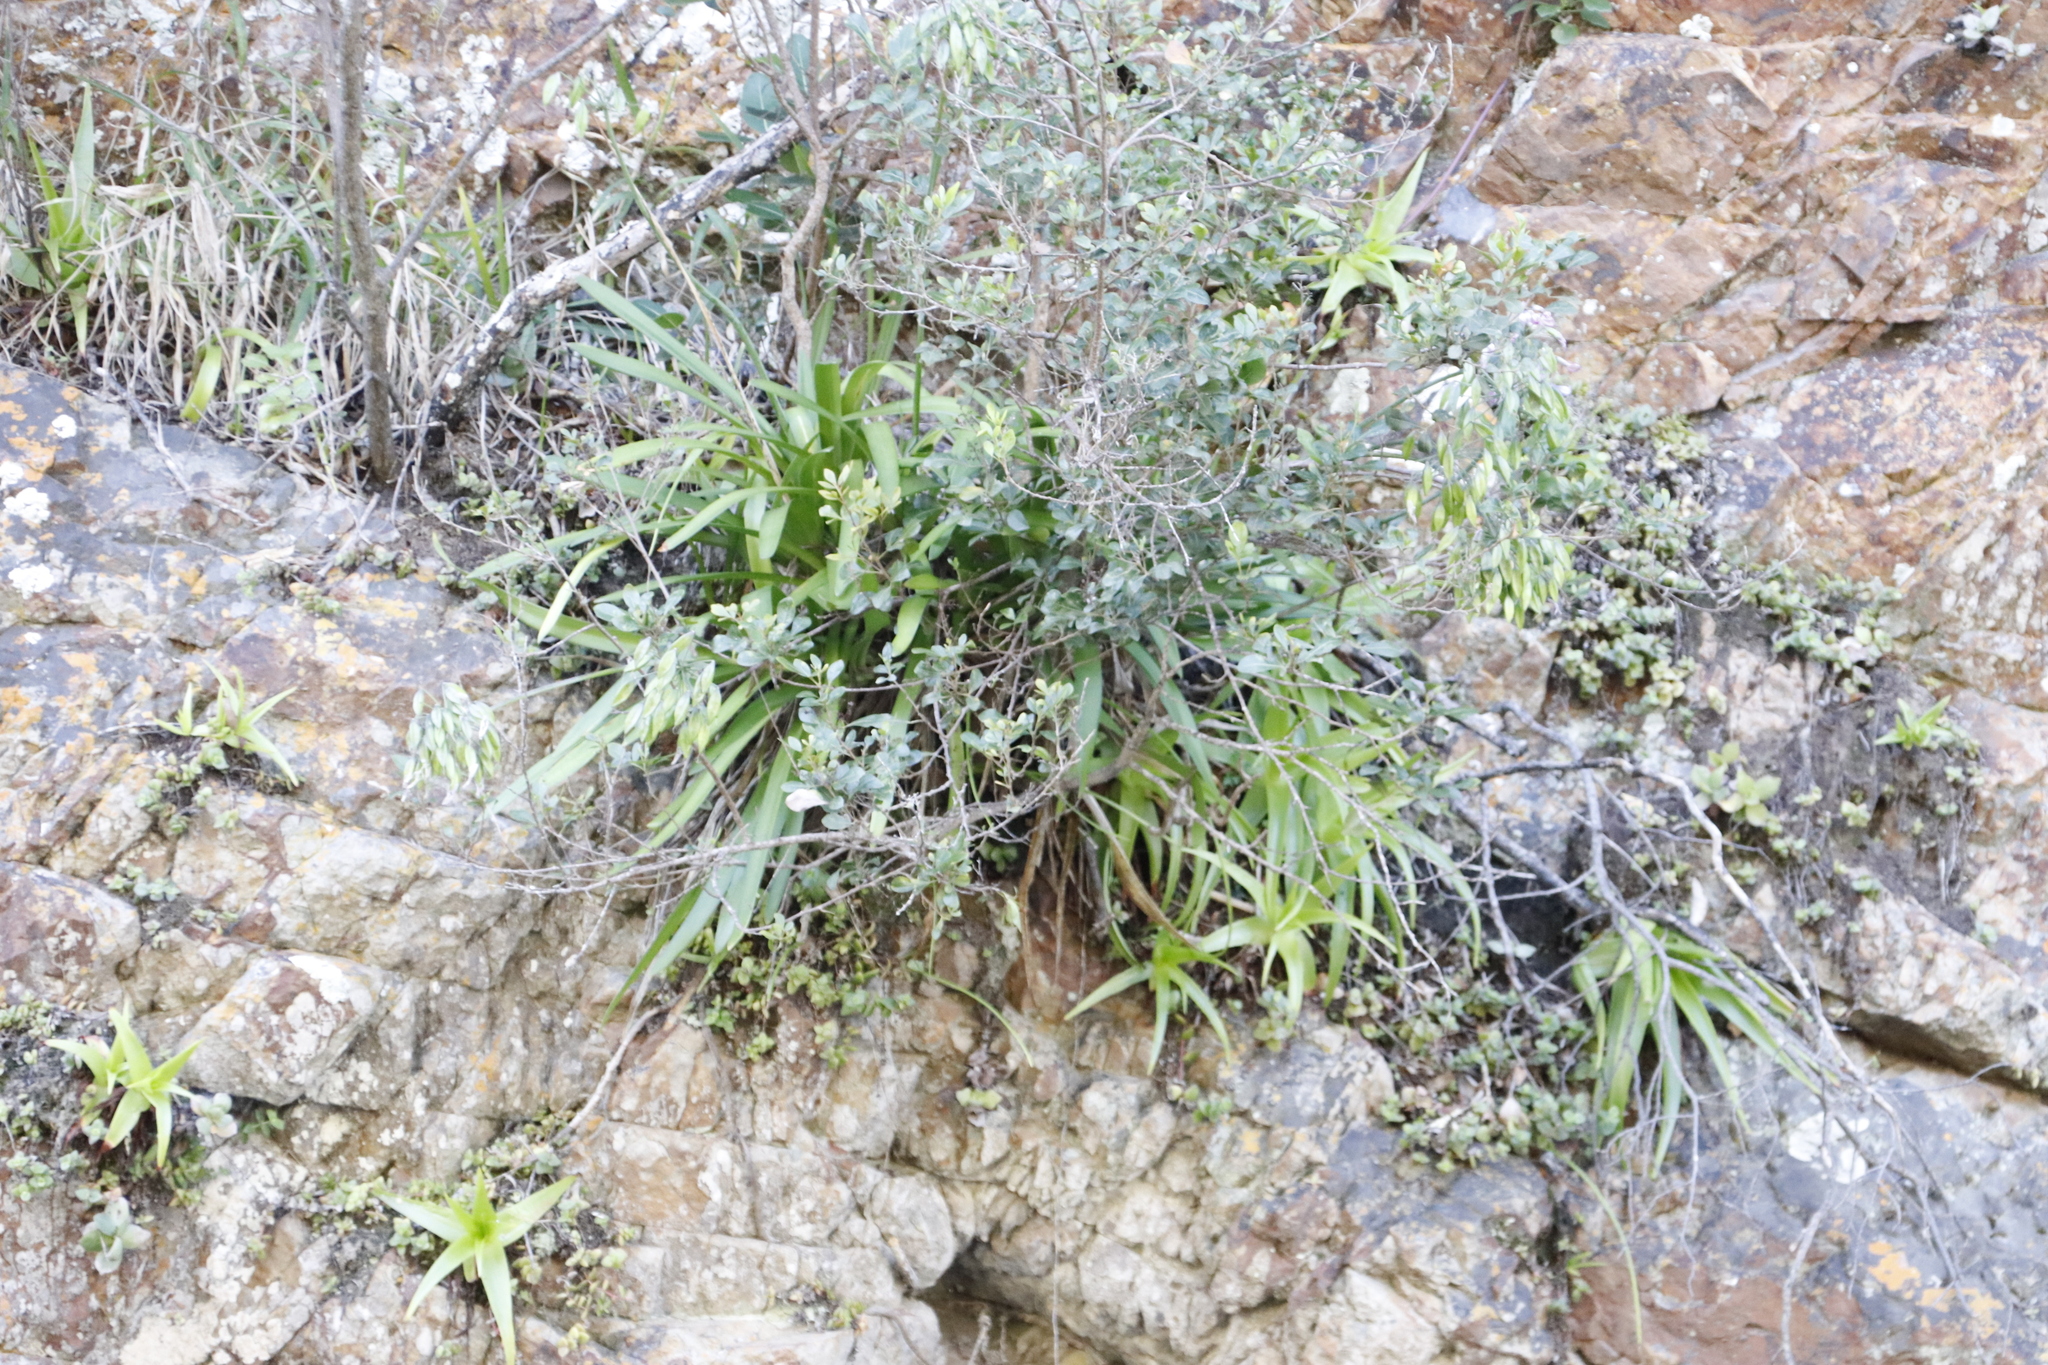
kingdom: Plantae
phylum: Tracheophyta
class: Liliopsida
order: Asparagales
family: Asphodelaceae
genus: Bulbine
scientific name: Bulbine latifolia
